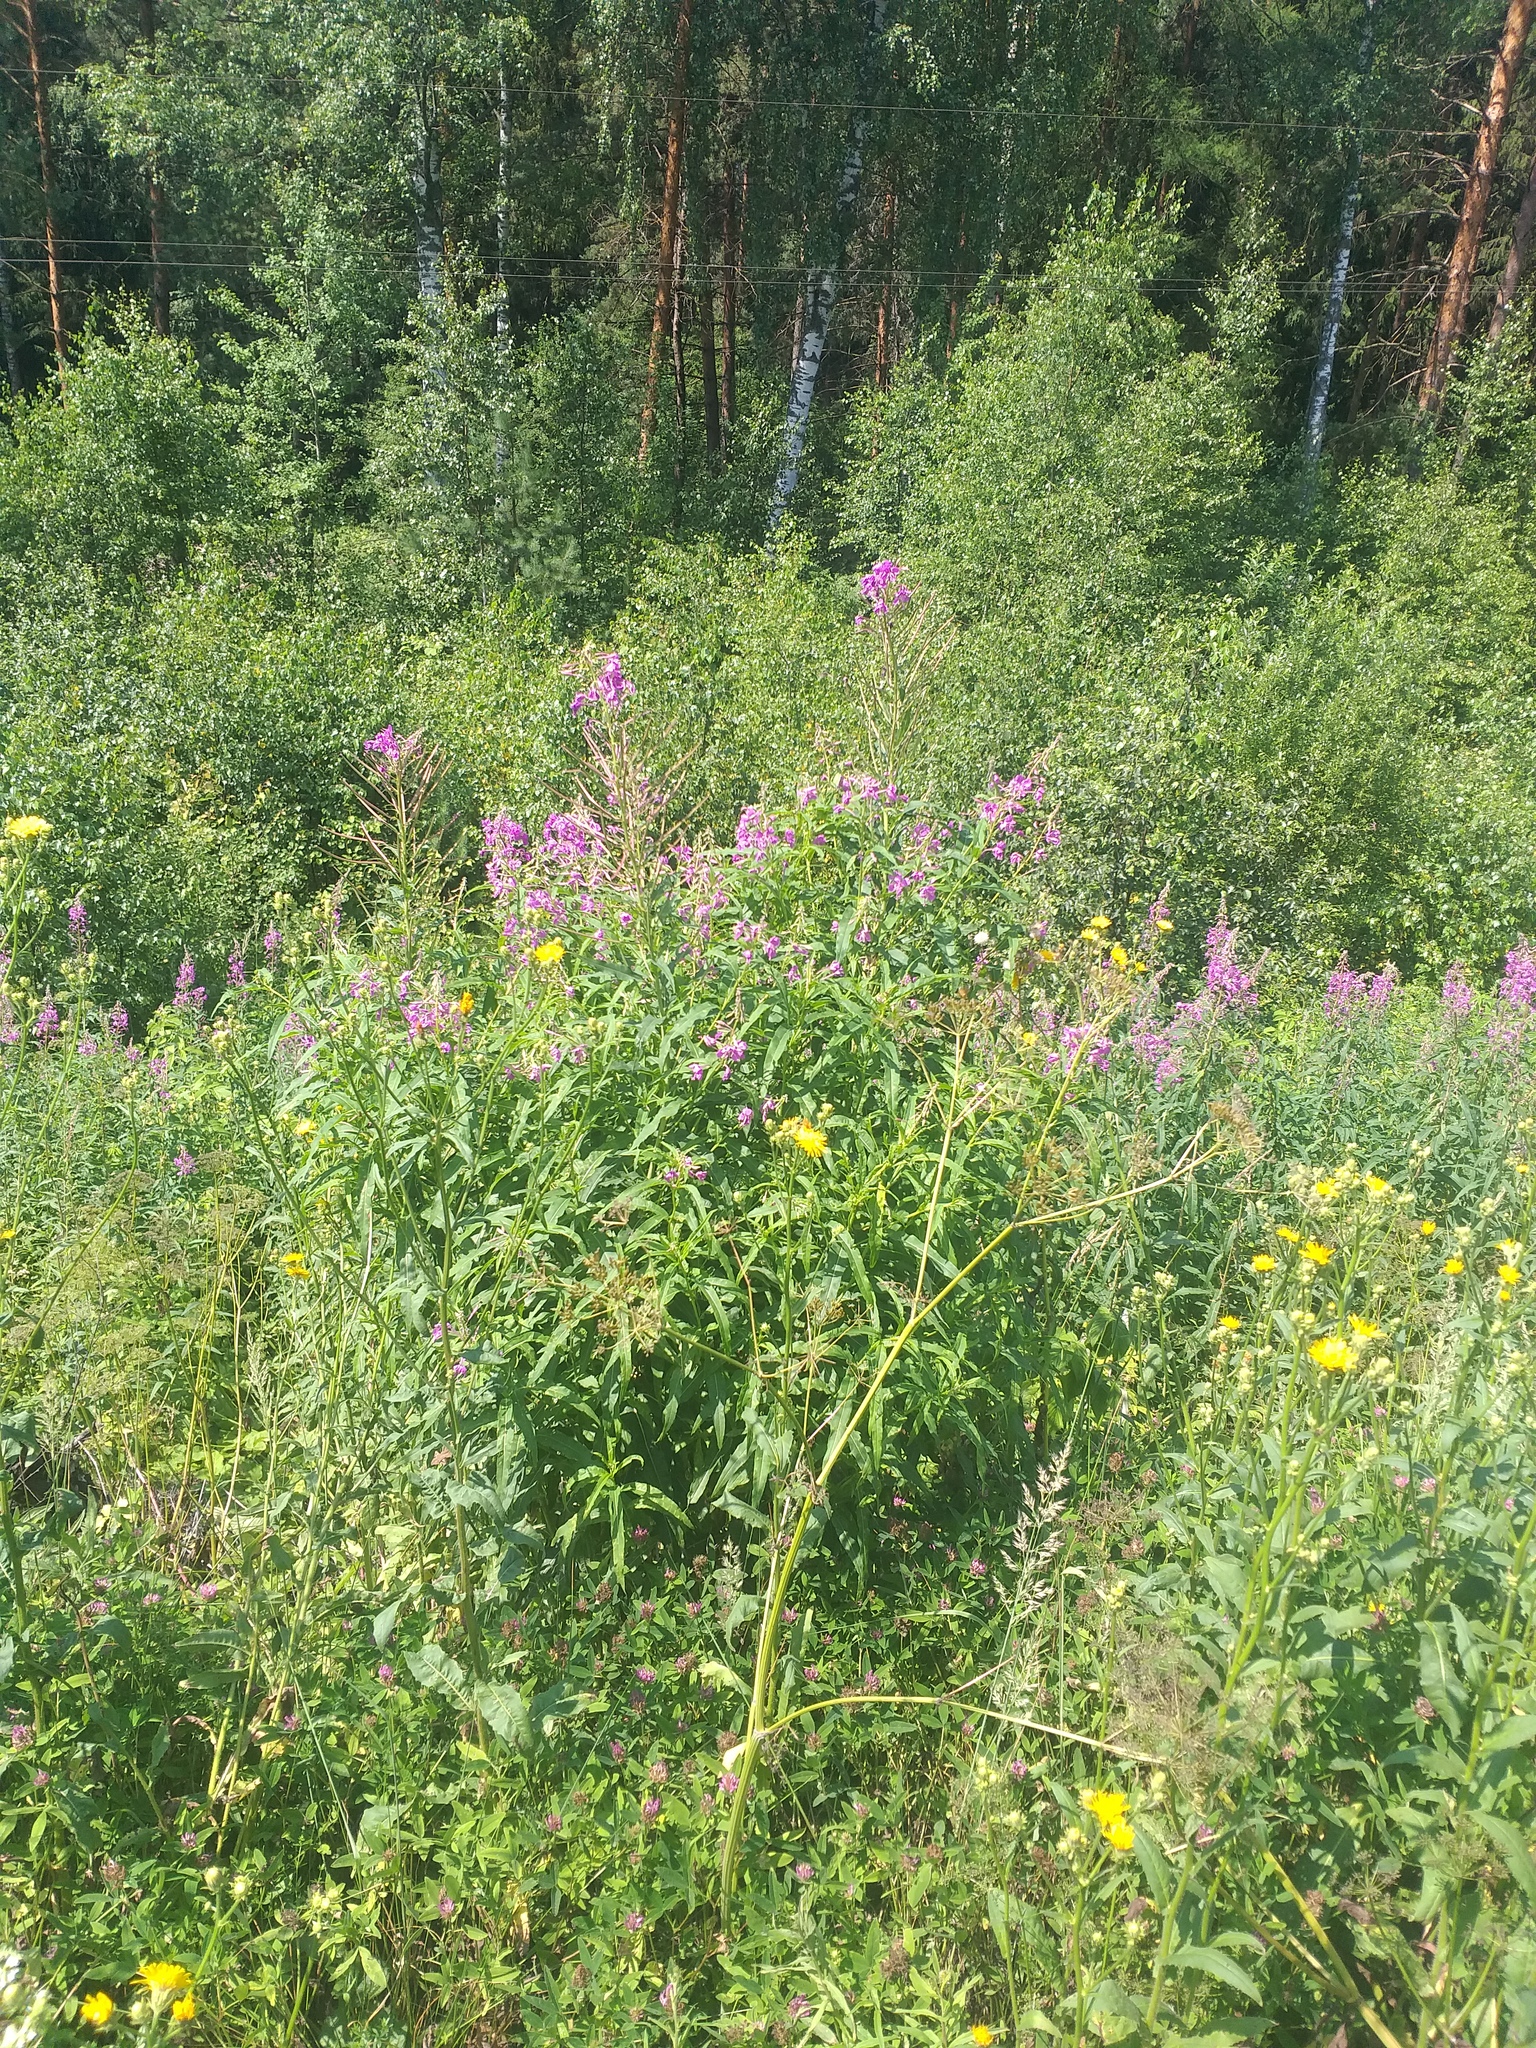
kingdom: Plantae
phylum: Tracheophyta
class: Magnoliopsida
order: Myrtales
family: Onagraceae
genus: Chamaenerion
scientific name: Chamaenerion angustifolium
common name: Fireweed
